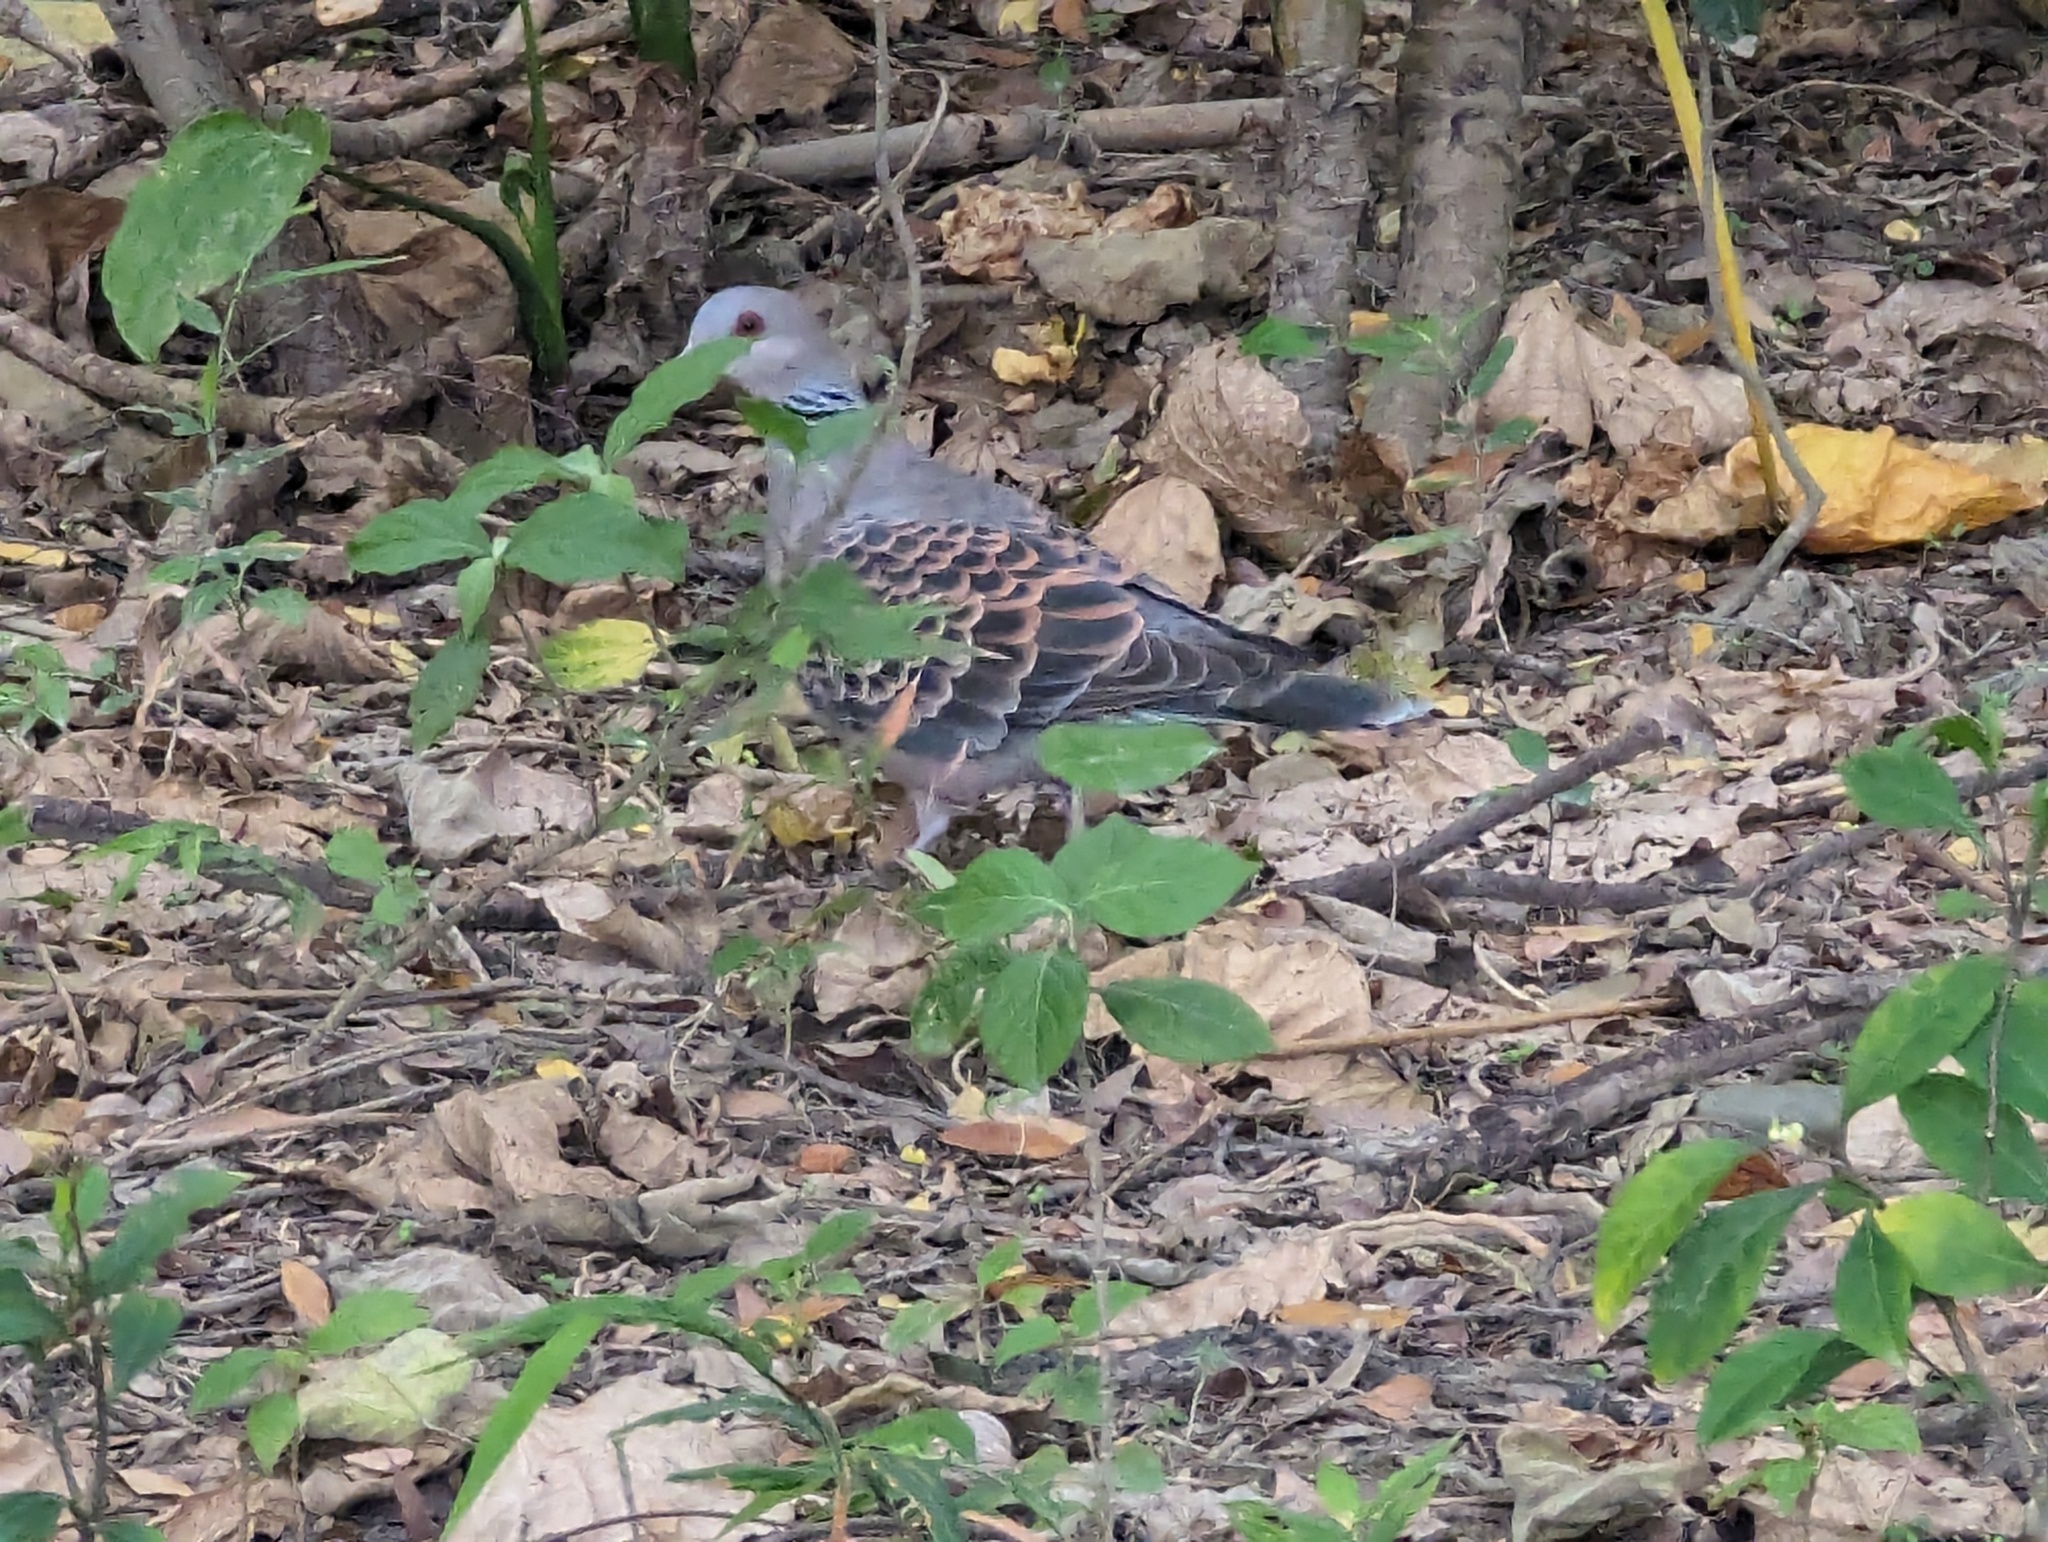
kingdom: Animalia
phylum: Chordata
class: Aves
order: Columbiformes
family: Columbidae
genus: Streptopelia
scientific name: Streptopelia orientalis
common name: Oriental turtle dove
